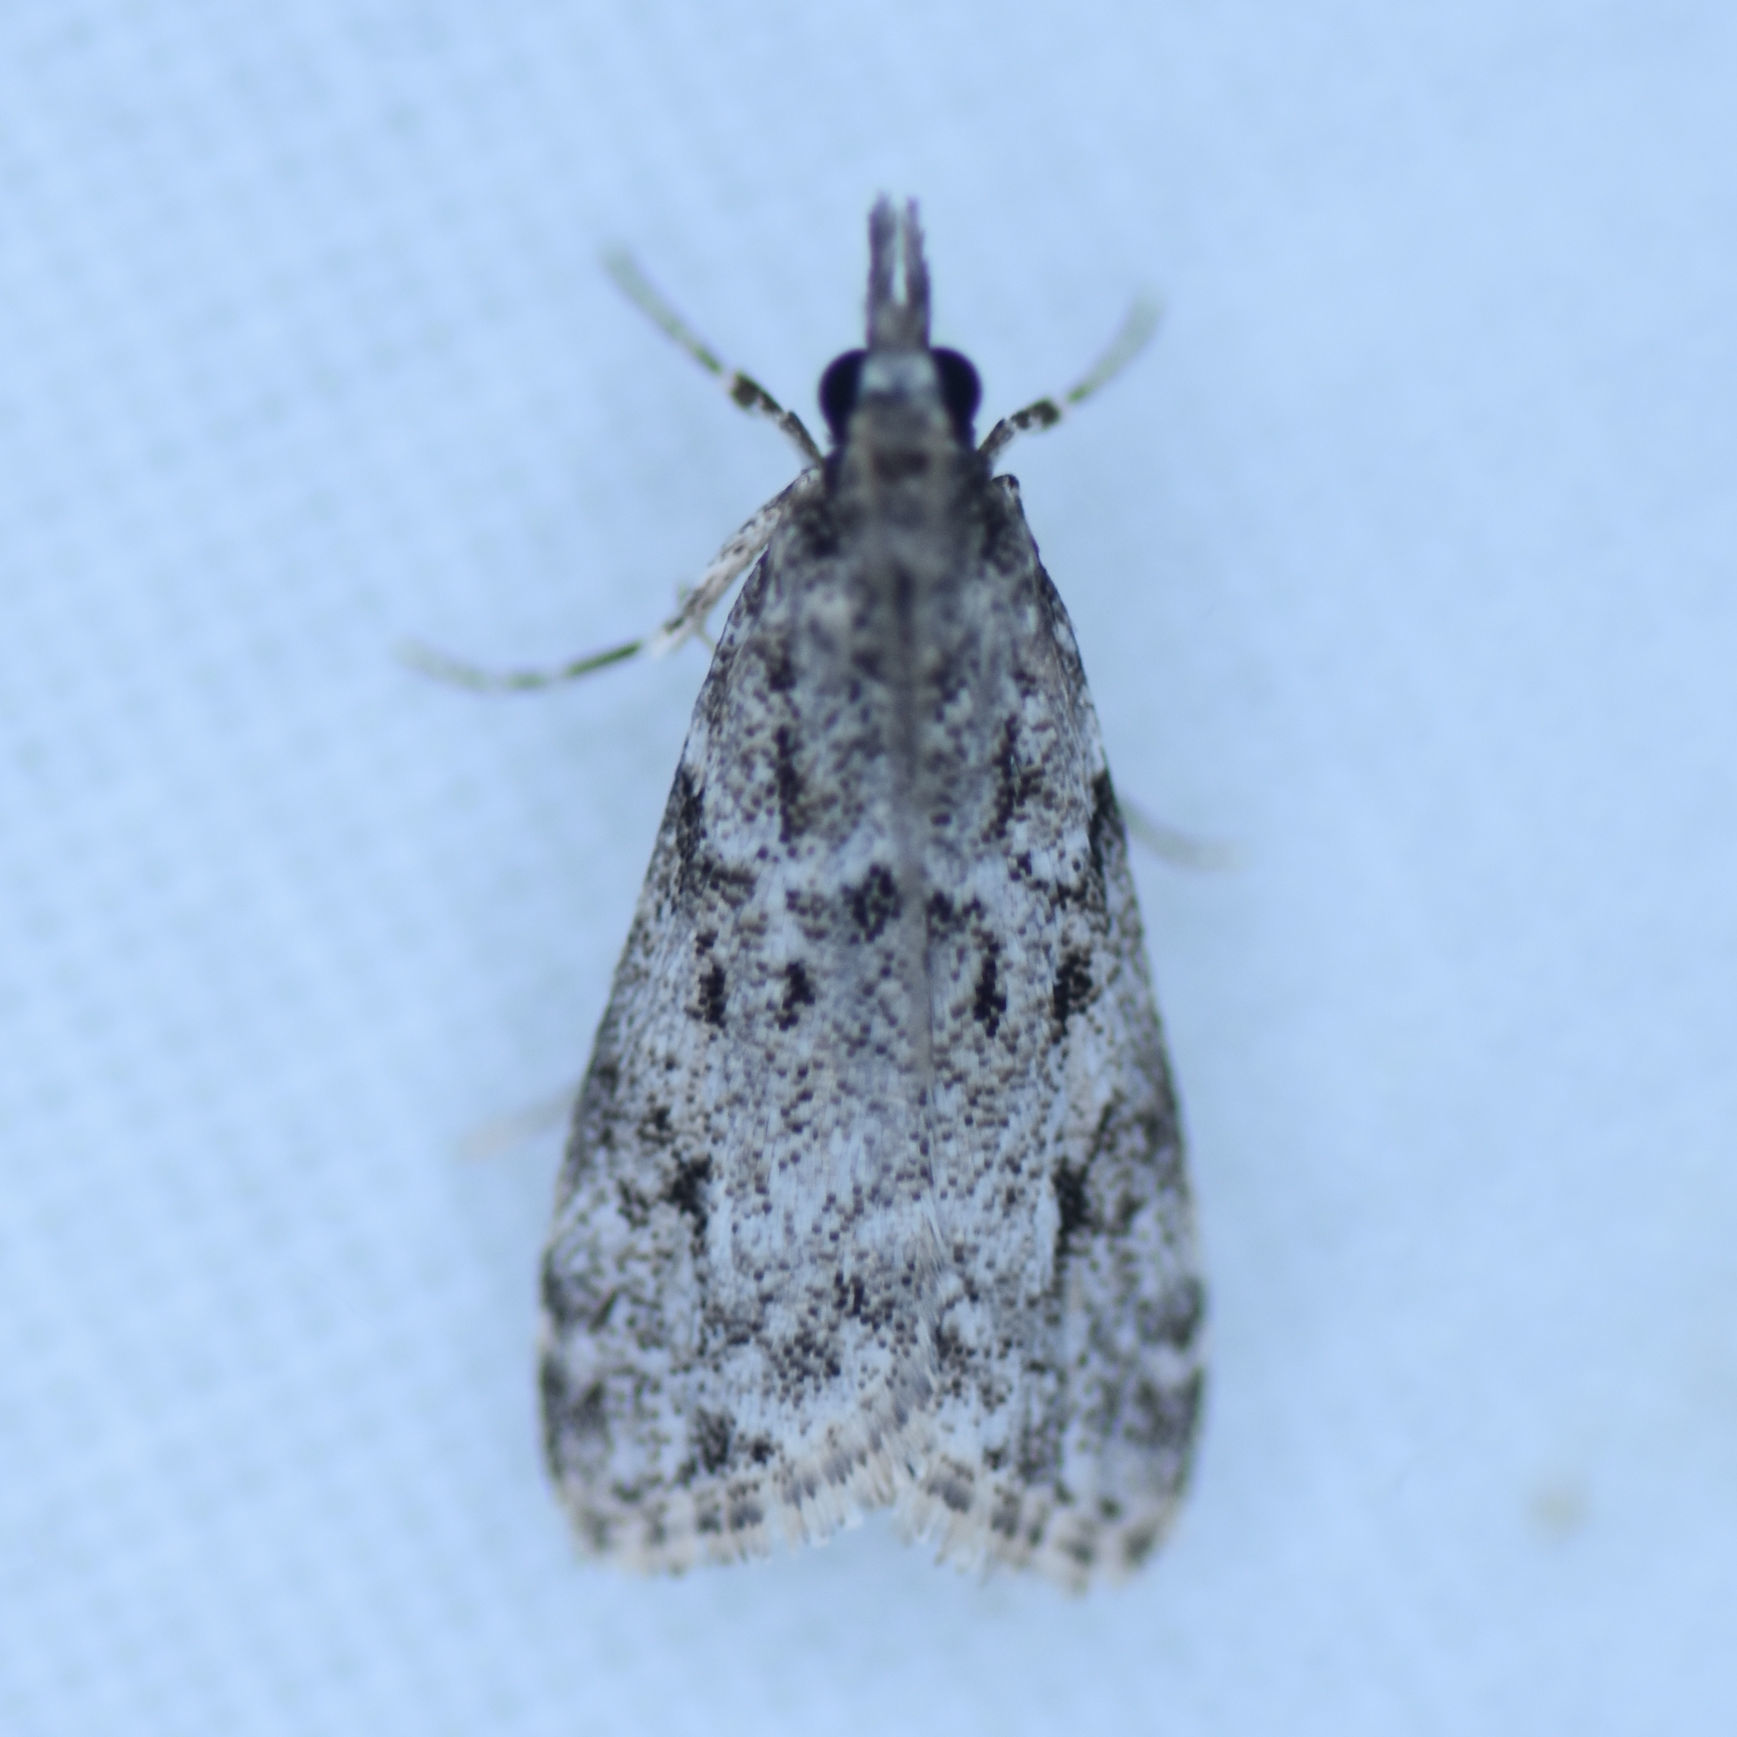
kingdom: Animalia
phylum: Arthropoda
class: Insecta
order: Lepidoptera
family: Crambidae
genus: Eudonia
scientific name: Eudonia strigalis
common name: Striped eudonia moth
